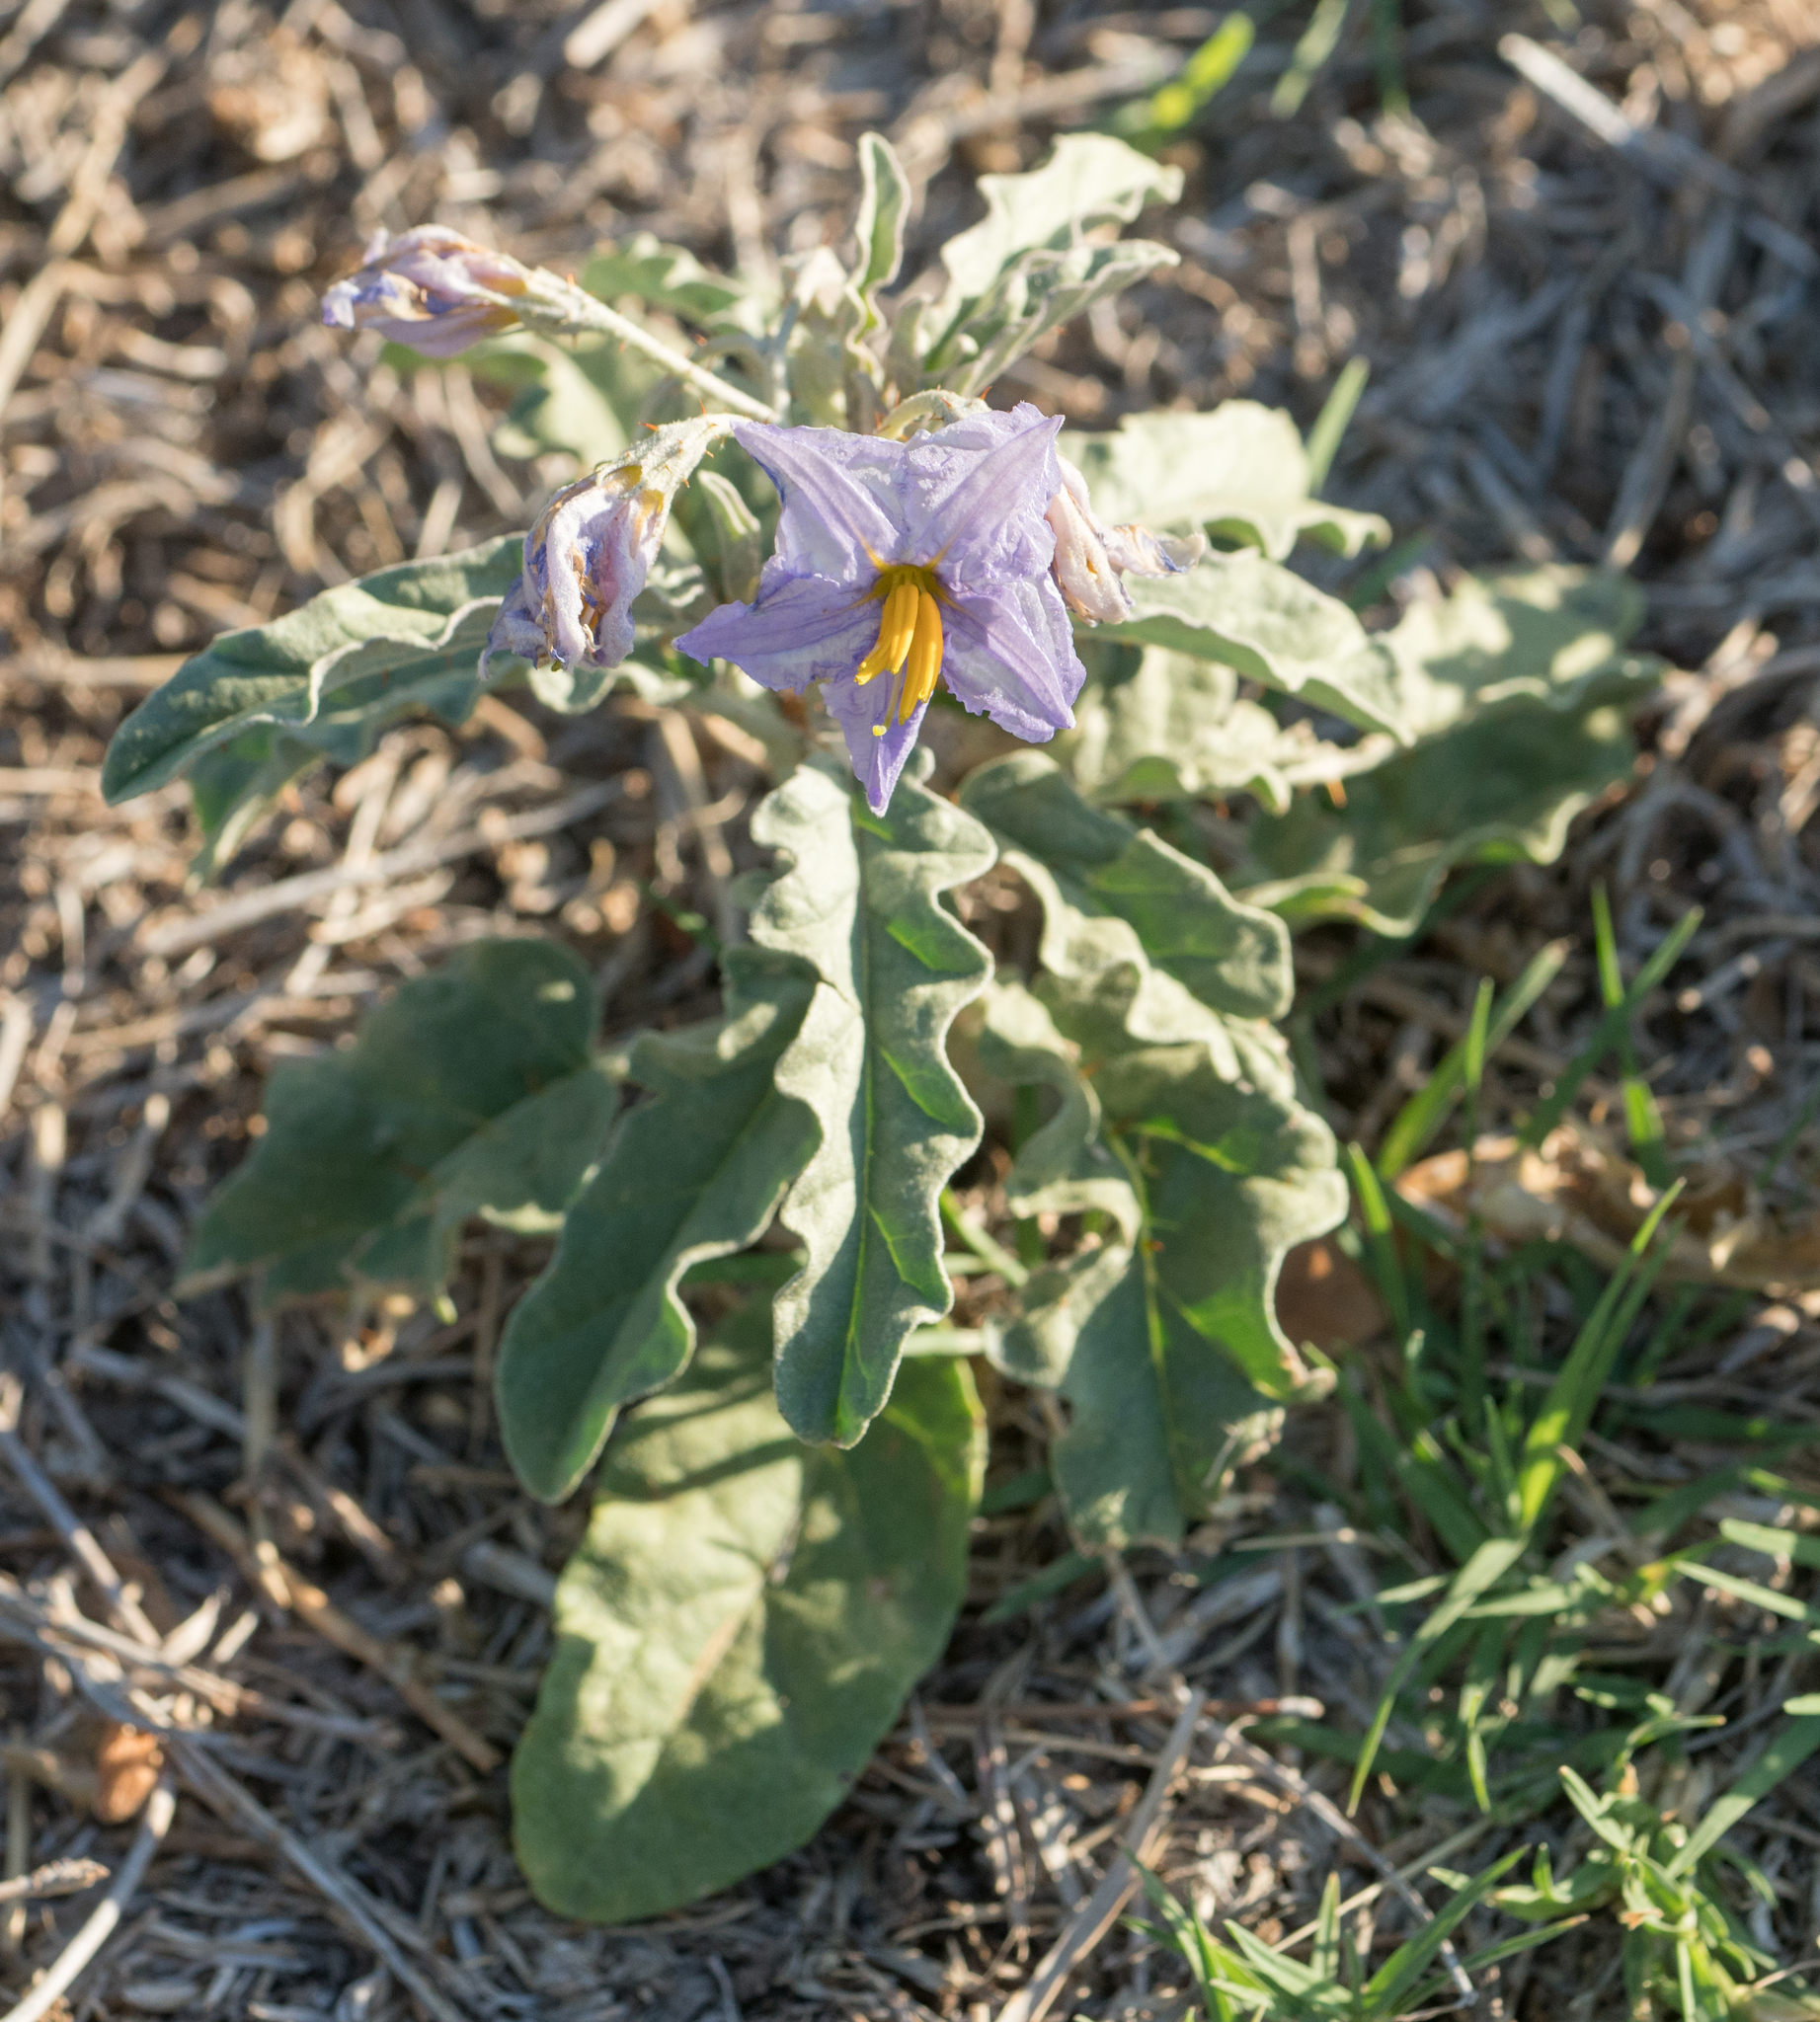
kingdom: Plantae
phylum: Tracheophyta
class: Magnoliopsida
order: Solanales
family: Solanaceae
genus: Solanum
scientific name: Solanum elaeagnifolium
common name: Silverleaf nightshade
